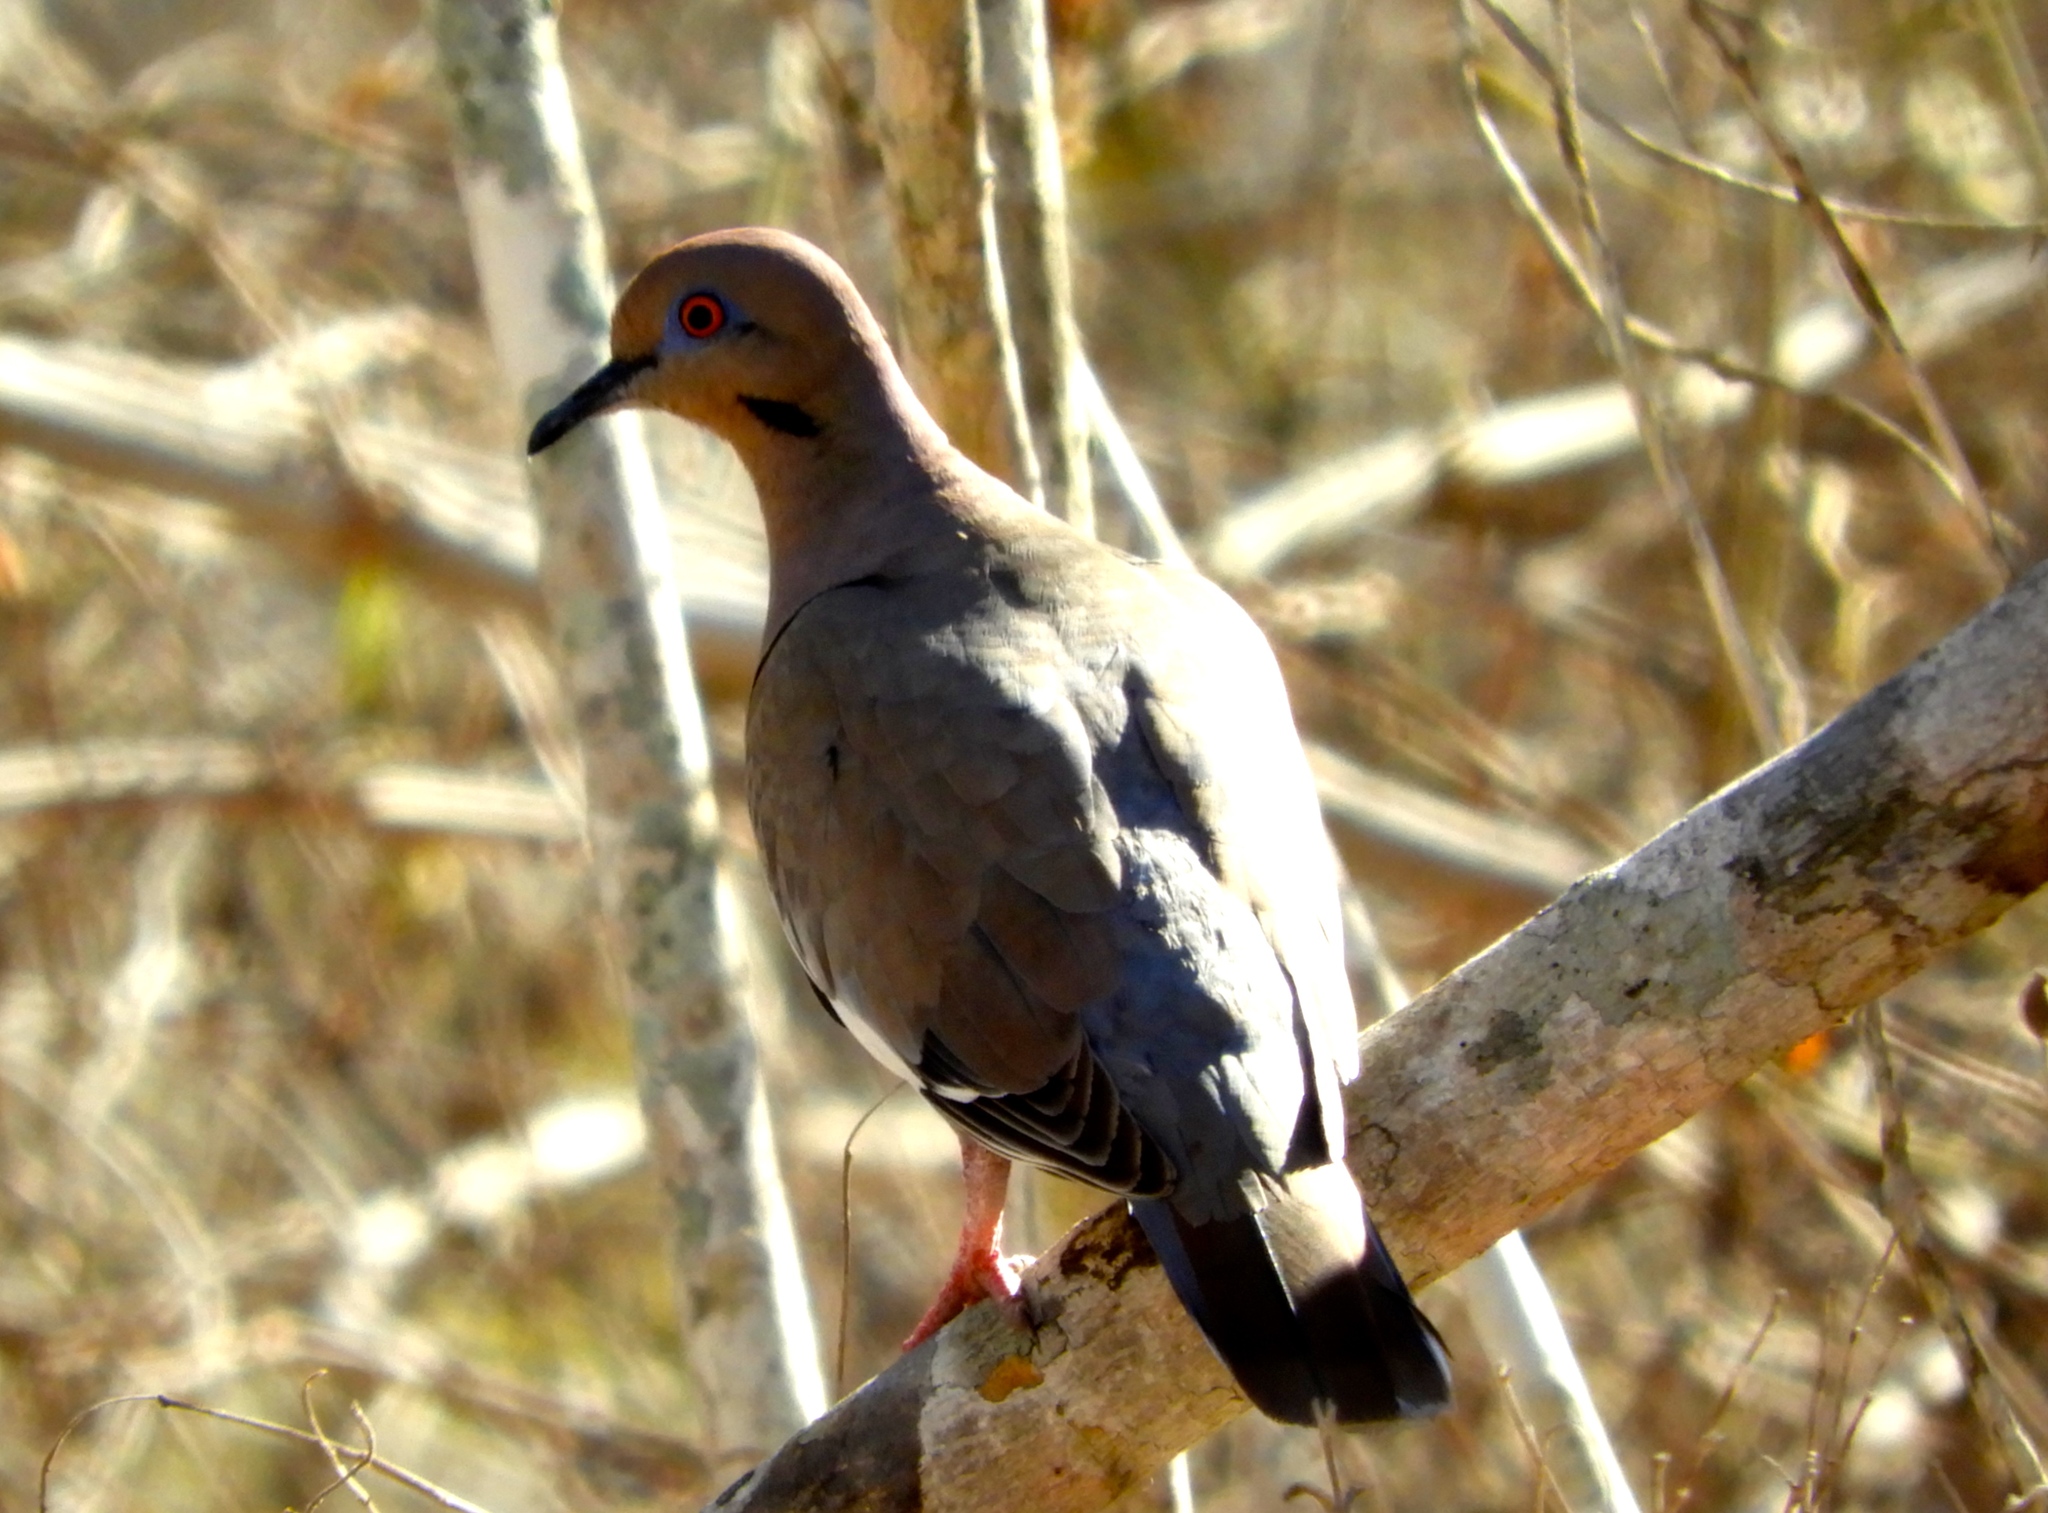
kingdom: Animalia
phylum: Chordata
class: Aves
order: Columbiformes
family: Columbidae
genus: Zenaida
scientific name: Zenaida asiatica
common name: White-winged dove
